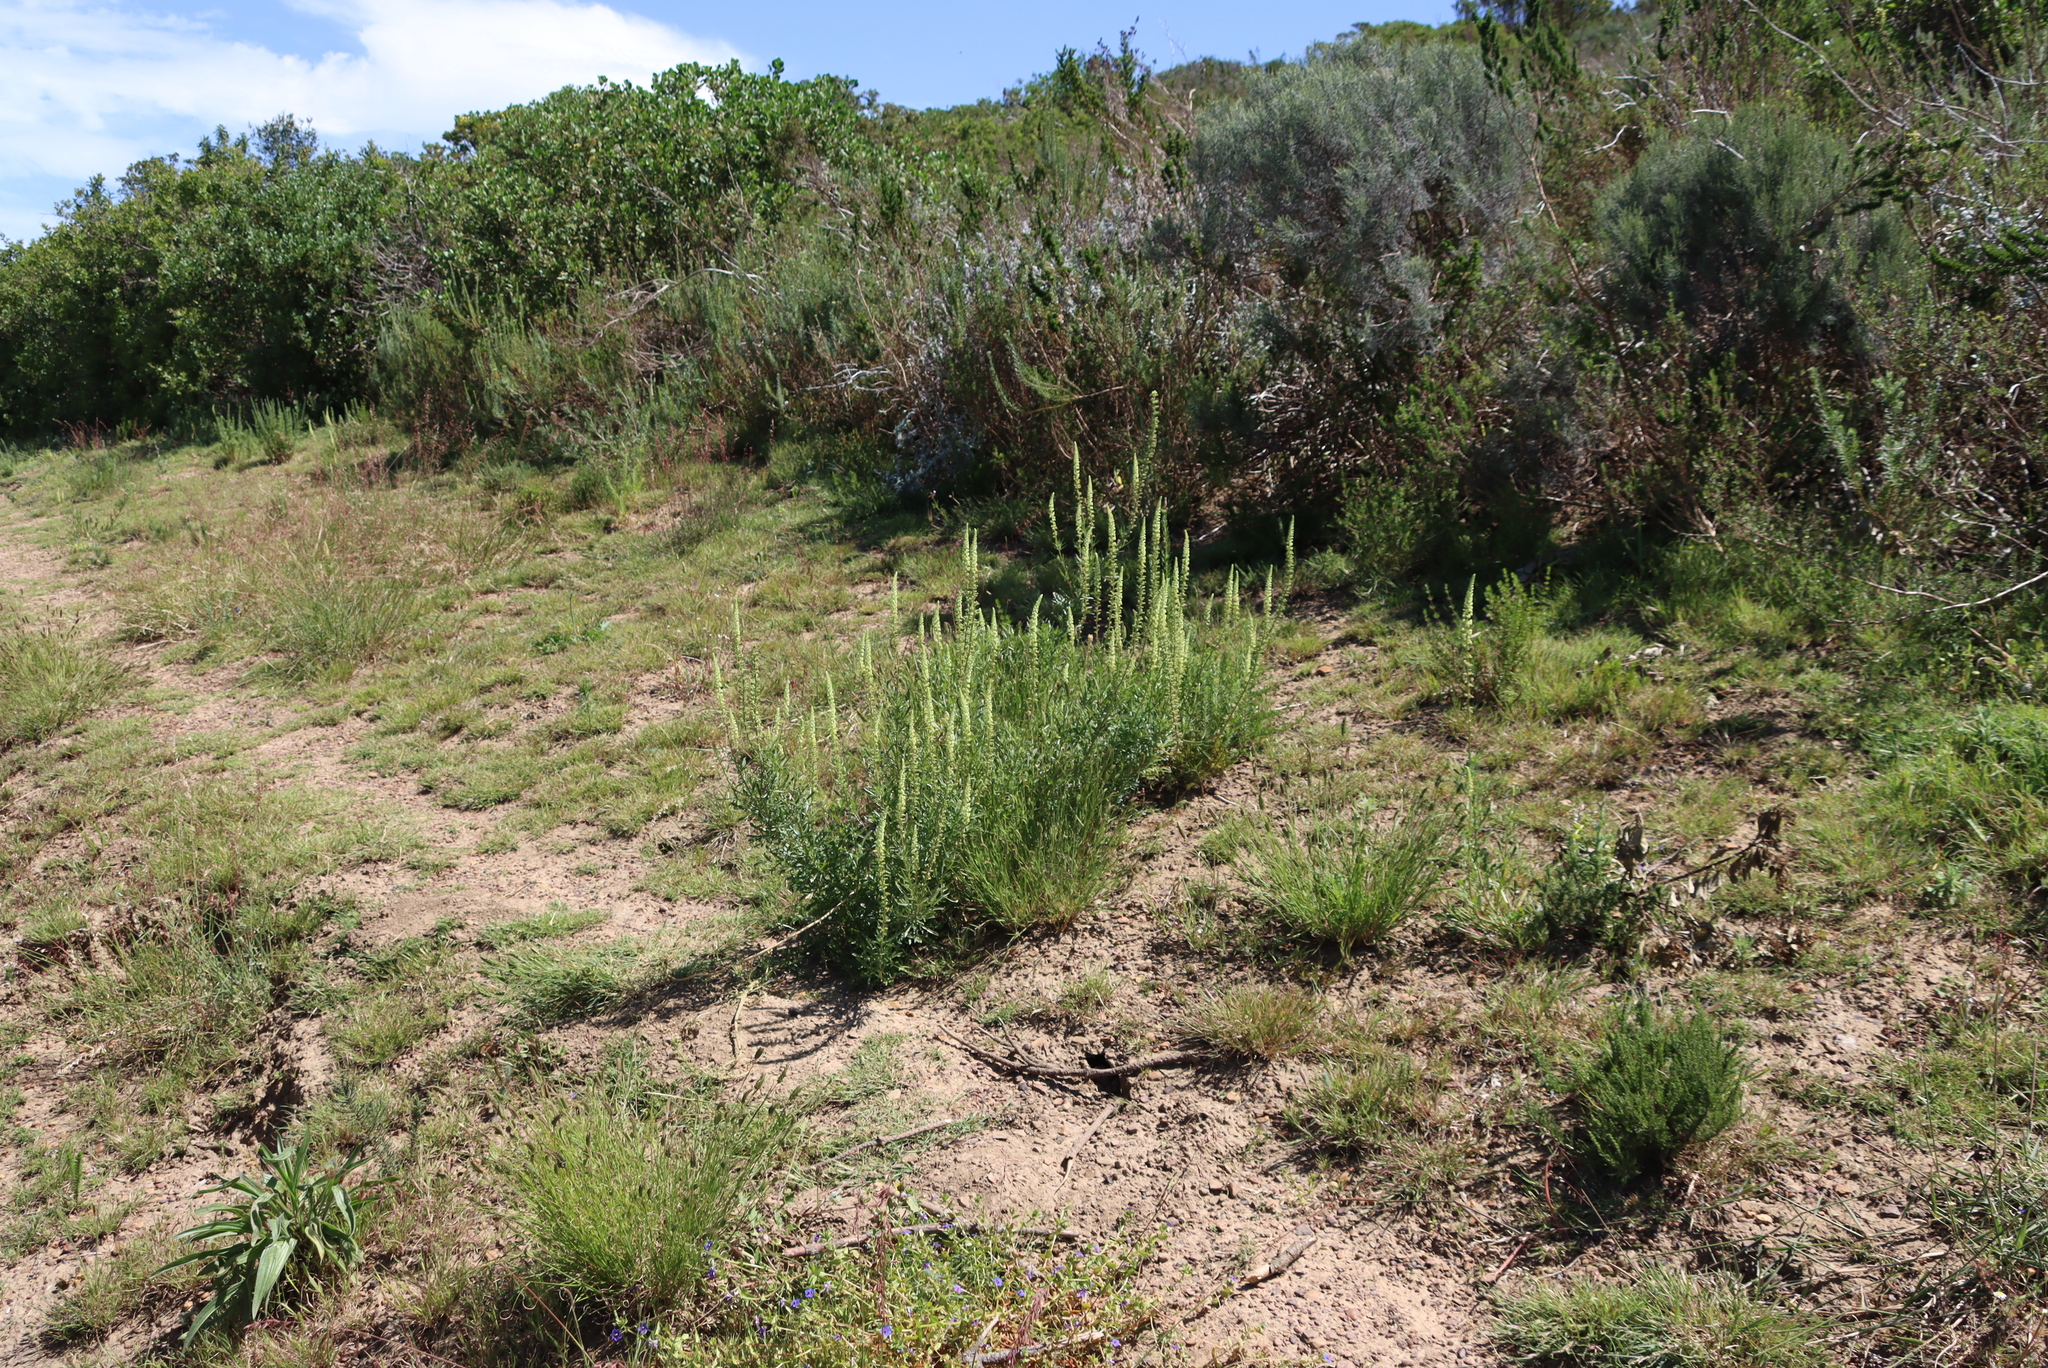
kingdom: Plantae
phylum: Tracheophyta
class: Magnoliopsida
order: Brassicales
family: Resedaceae
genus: Reseda
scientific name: Reseda lutea
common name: Wild mignonette
